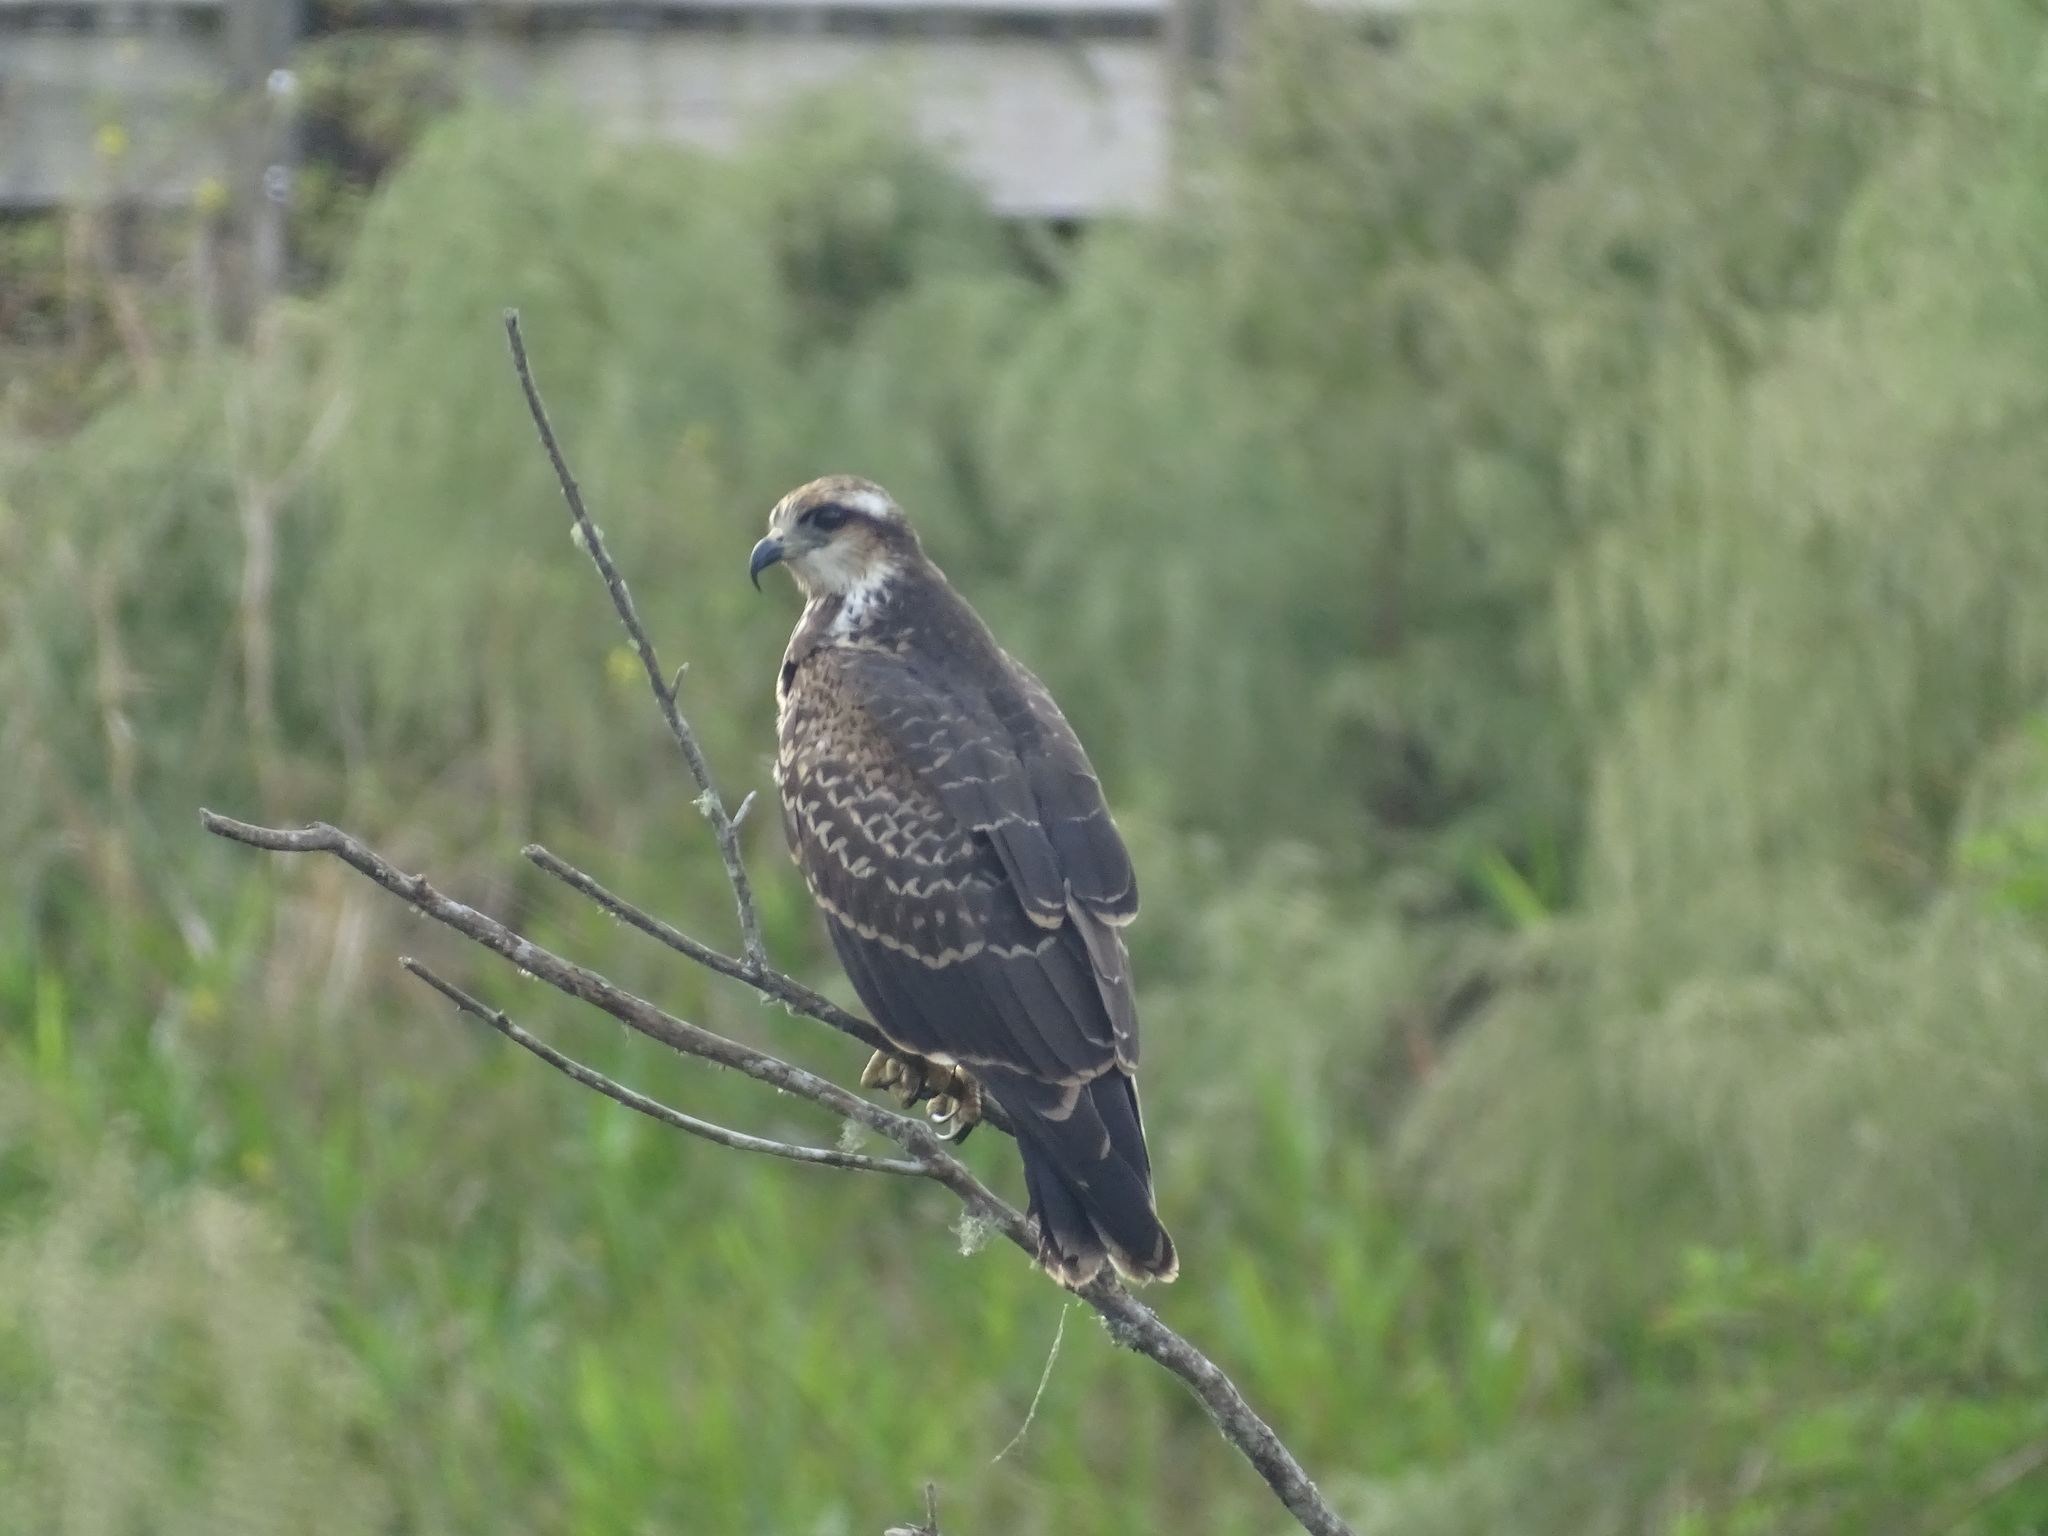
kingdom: Animalia
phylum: Chordata
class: Aves
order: Accipitriformes
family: Accipitridae
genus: Rostrhamus
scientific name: Rostrhamus sociabilis
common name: Snail kite
